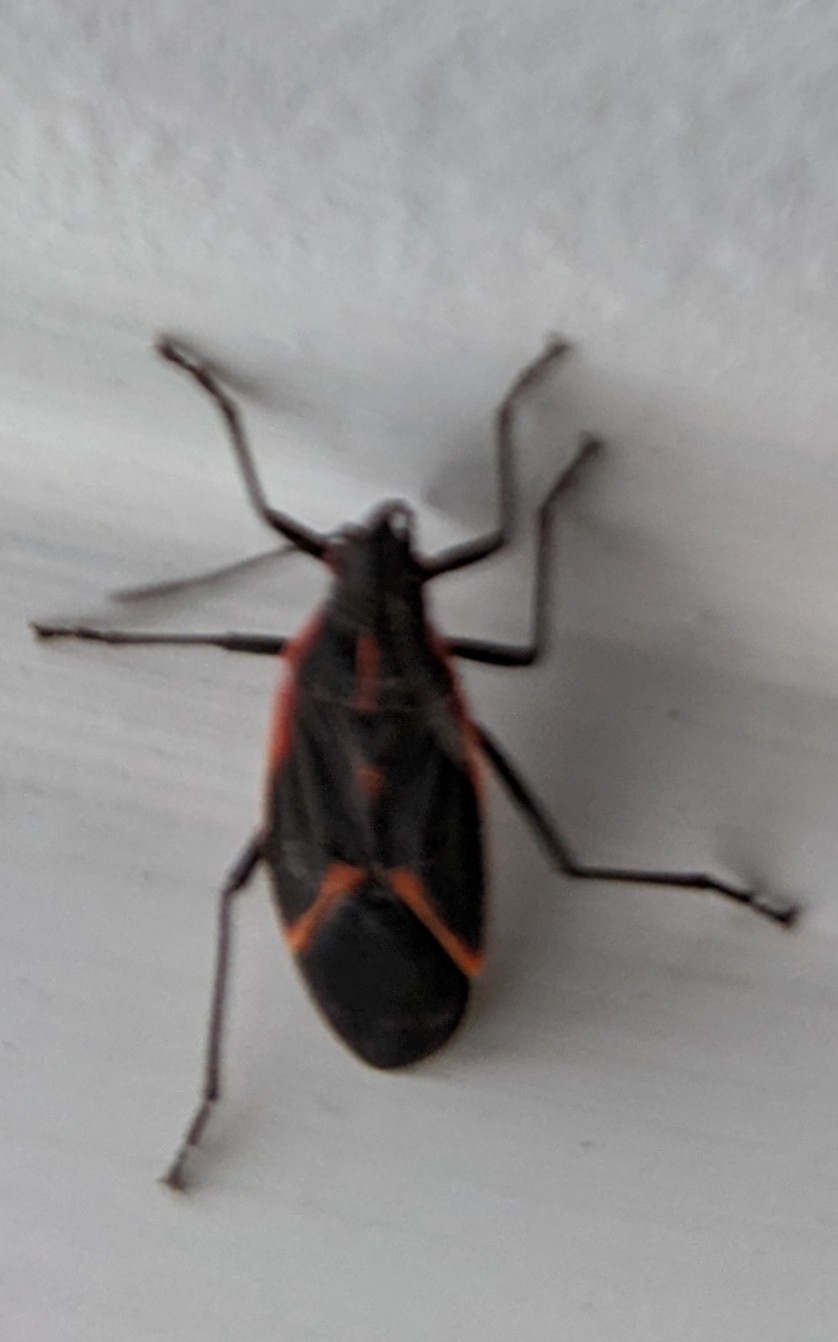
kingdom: Animalia
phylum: Arthropoda
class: Insecta
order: Hemiptera
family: Rhopalidae
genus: Boisea
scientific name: Boisea trivittata
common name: Boxelder bug
